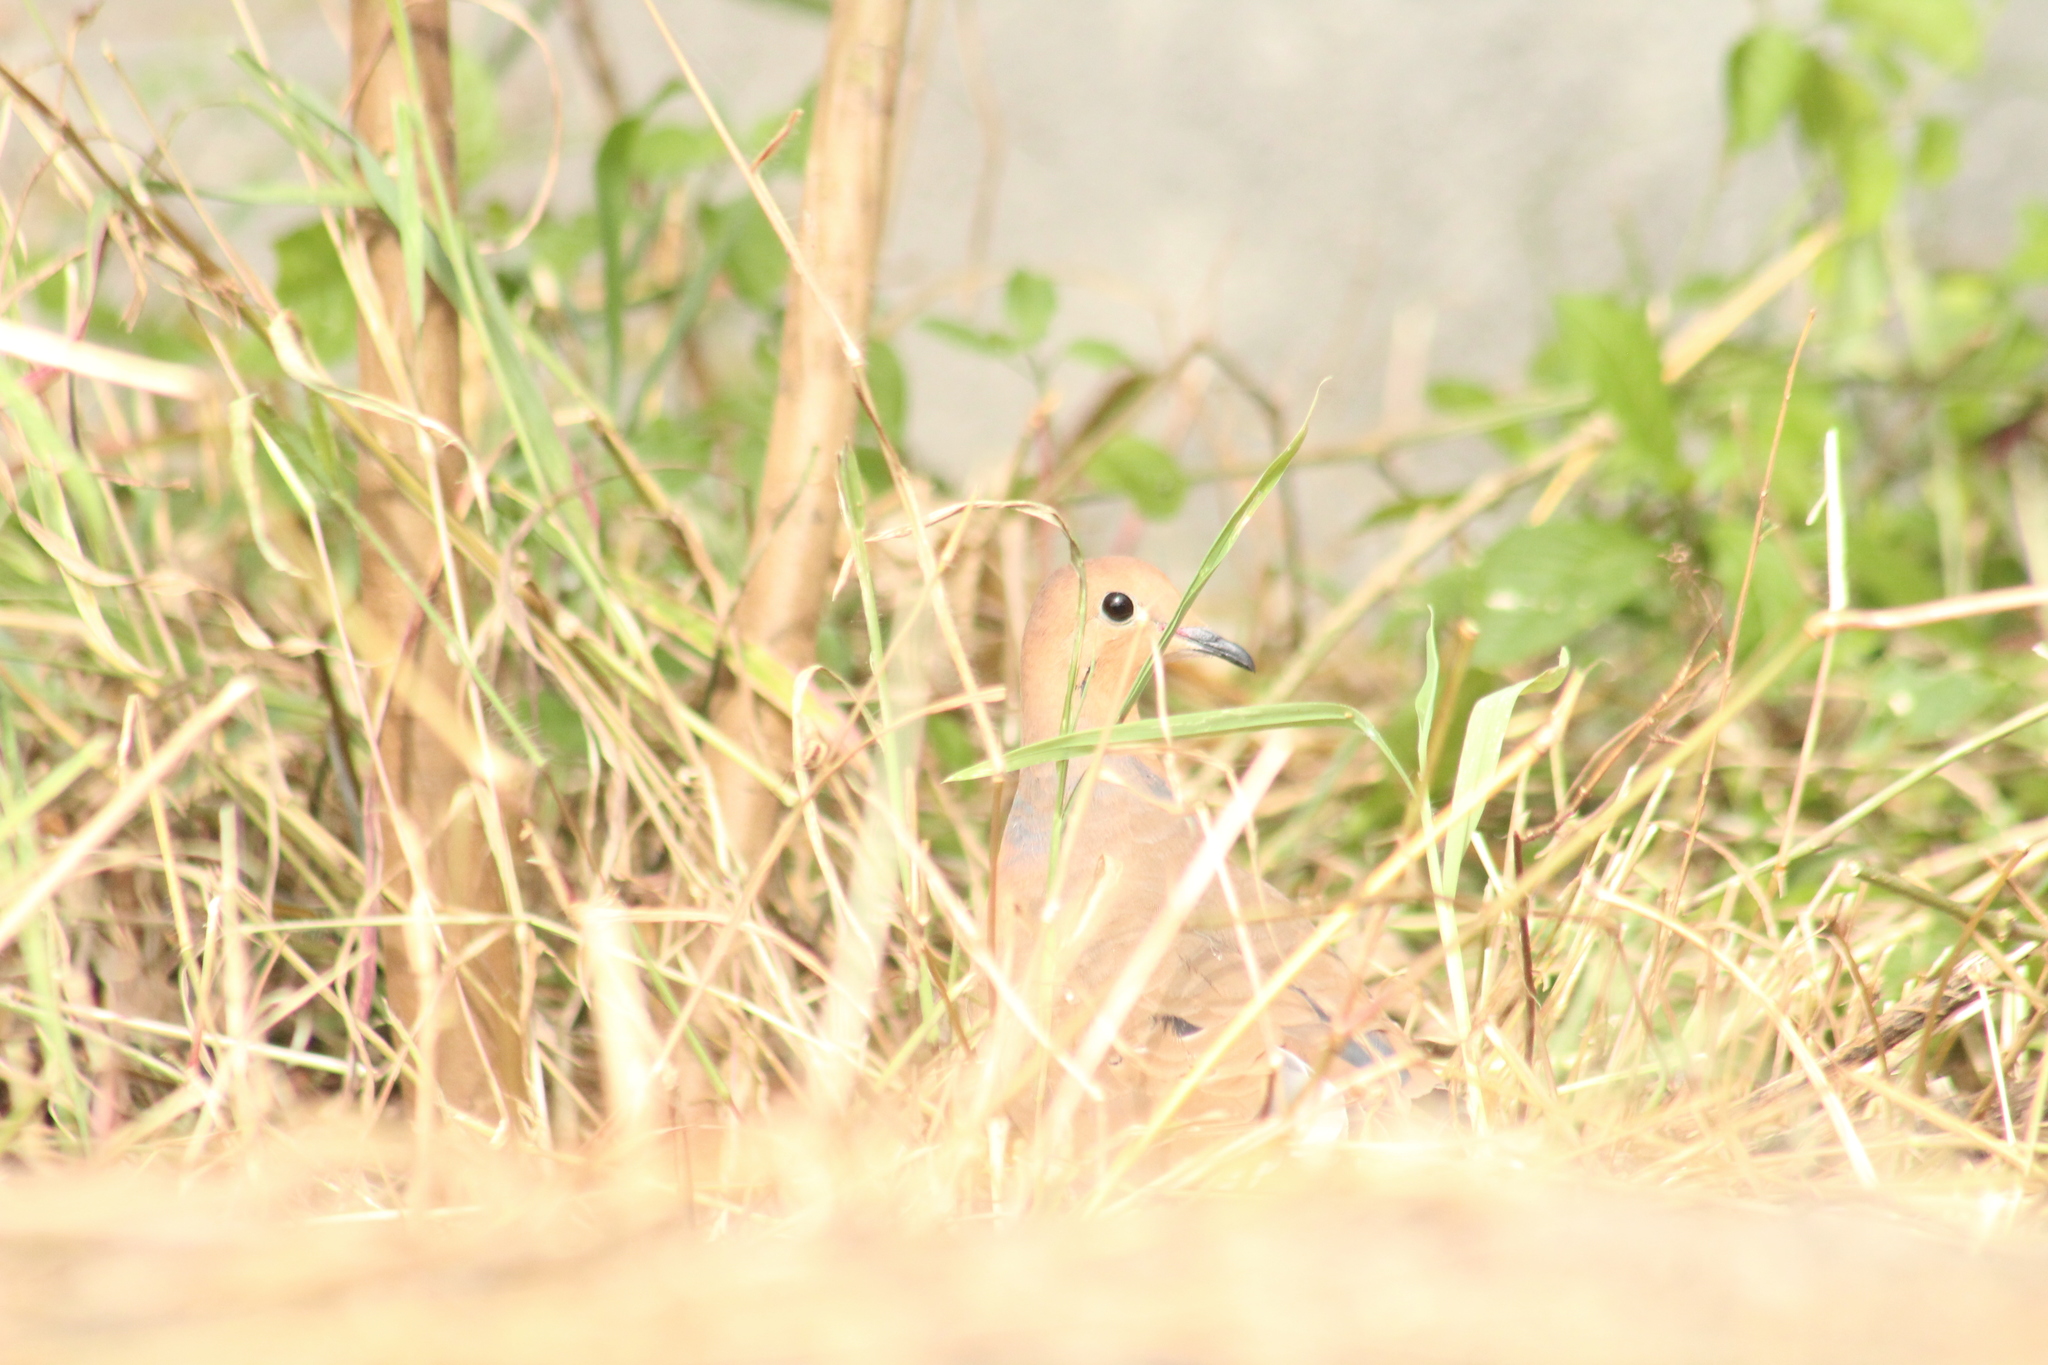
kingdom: Animalia
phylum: Chordata
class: Aves
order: Columbiformes
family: Columbidae
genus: Zenaida
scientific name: Zenaida aurita
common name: Zenaida dove
